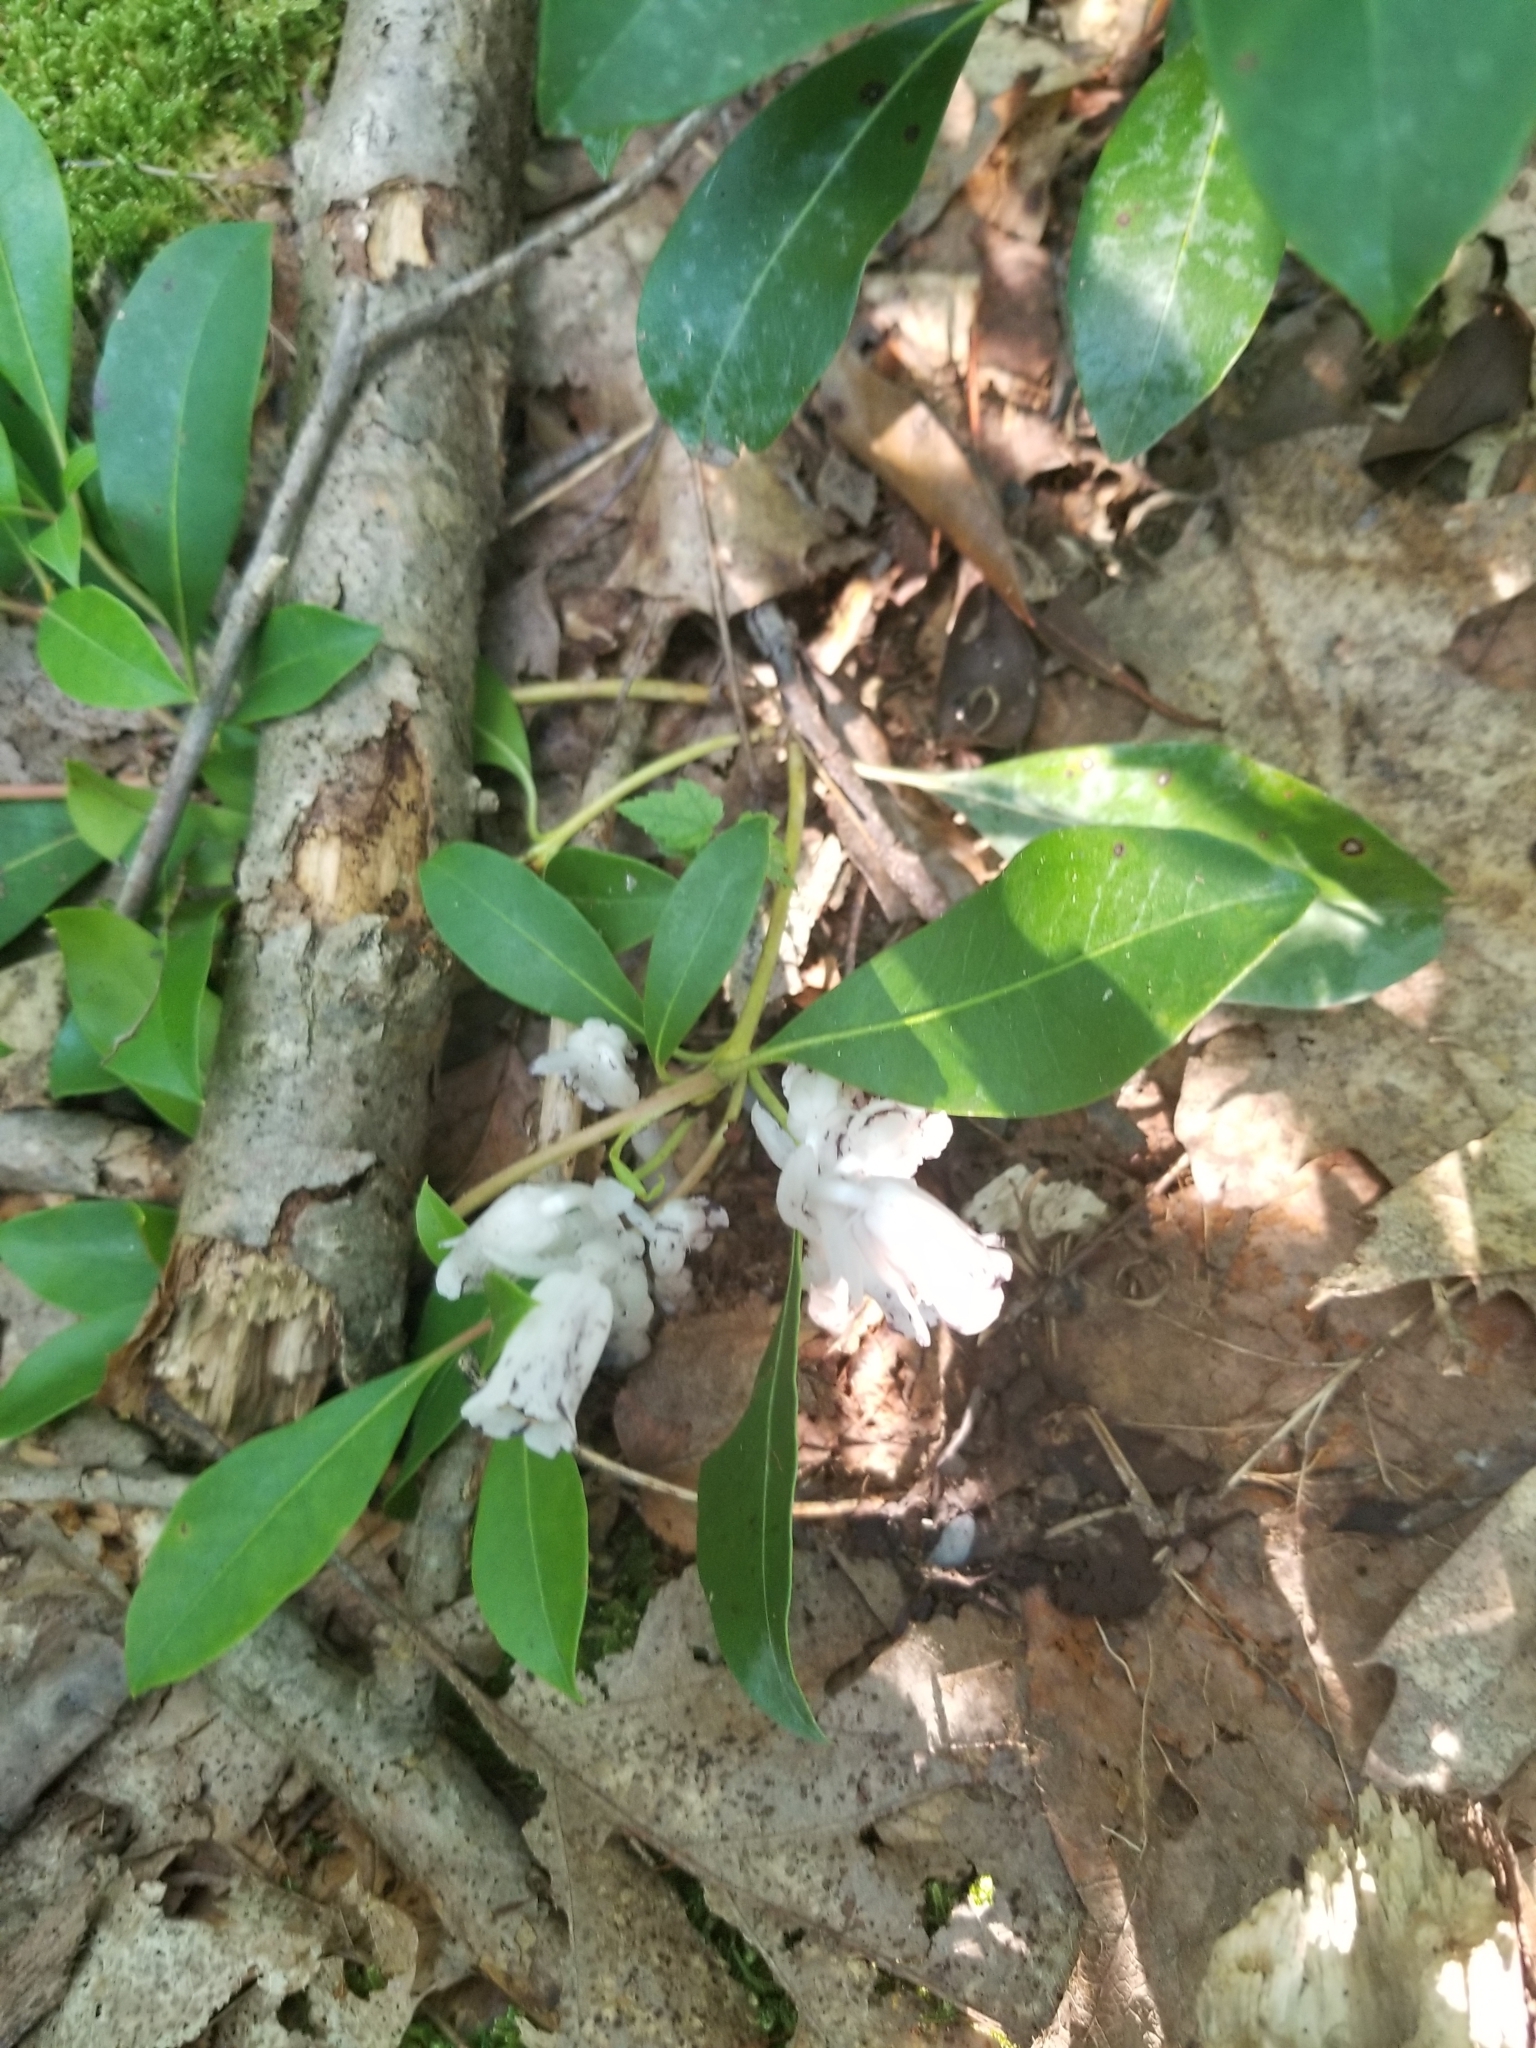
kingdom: Plantae
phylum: Tracheophyta
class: Magnoliopsida
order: Ericales
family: Ericaceae
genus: Monotropa
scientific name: Monotropa uniflora
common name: Convulsion root
